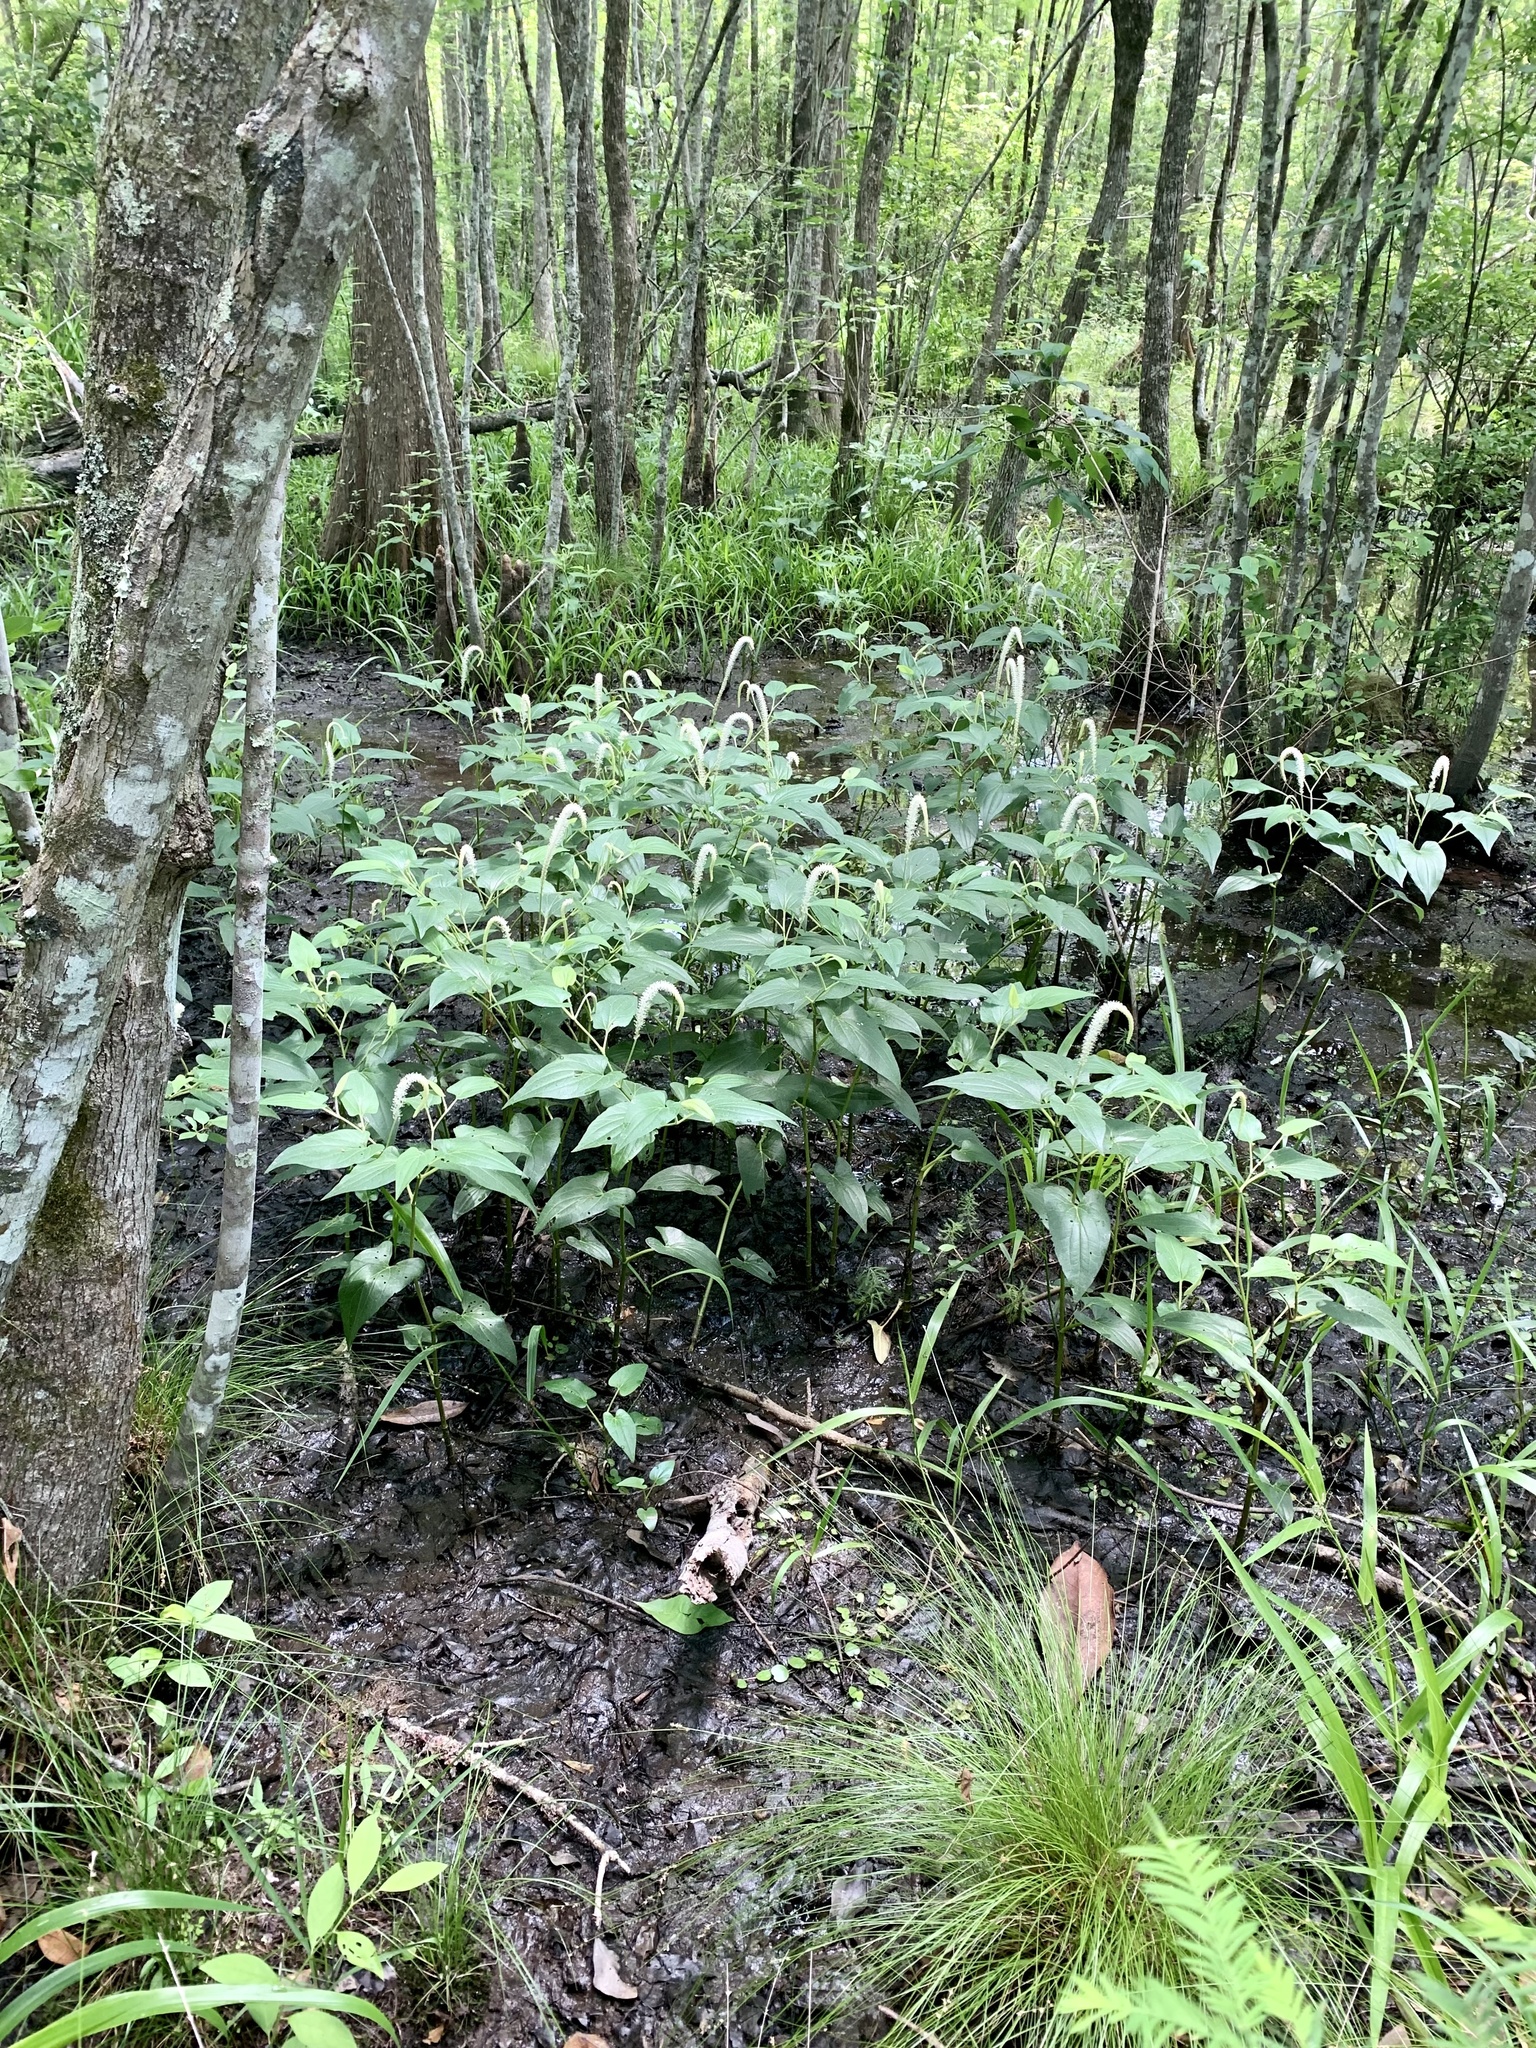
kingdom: Plantae
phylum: Tracheophyta
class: Magnoliopsida
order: Piperales
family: Saururaceae
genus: Saururus
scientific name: Saururus cernuus
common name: Lizard's-tail
